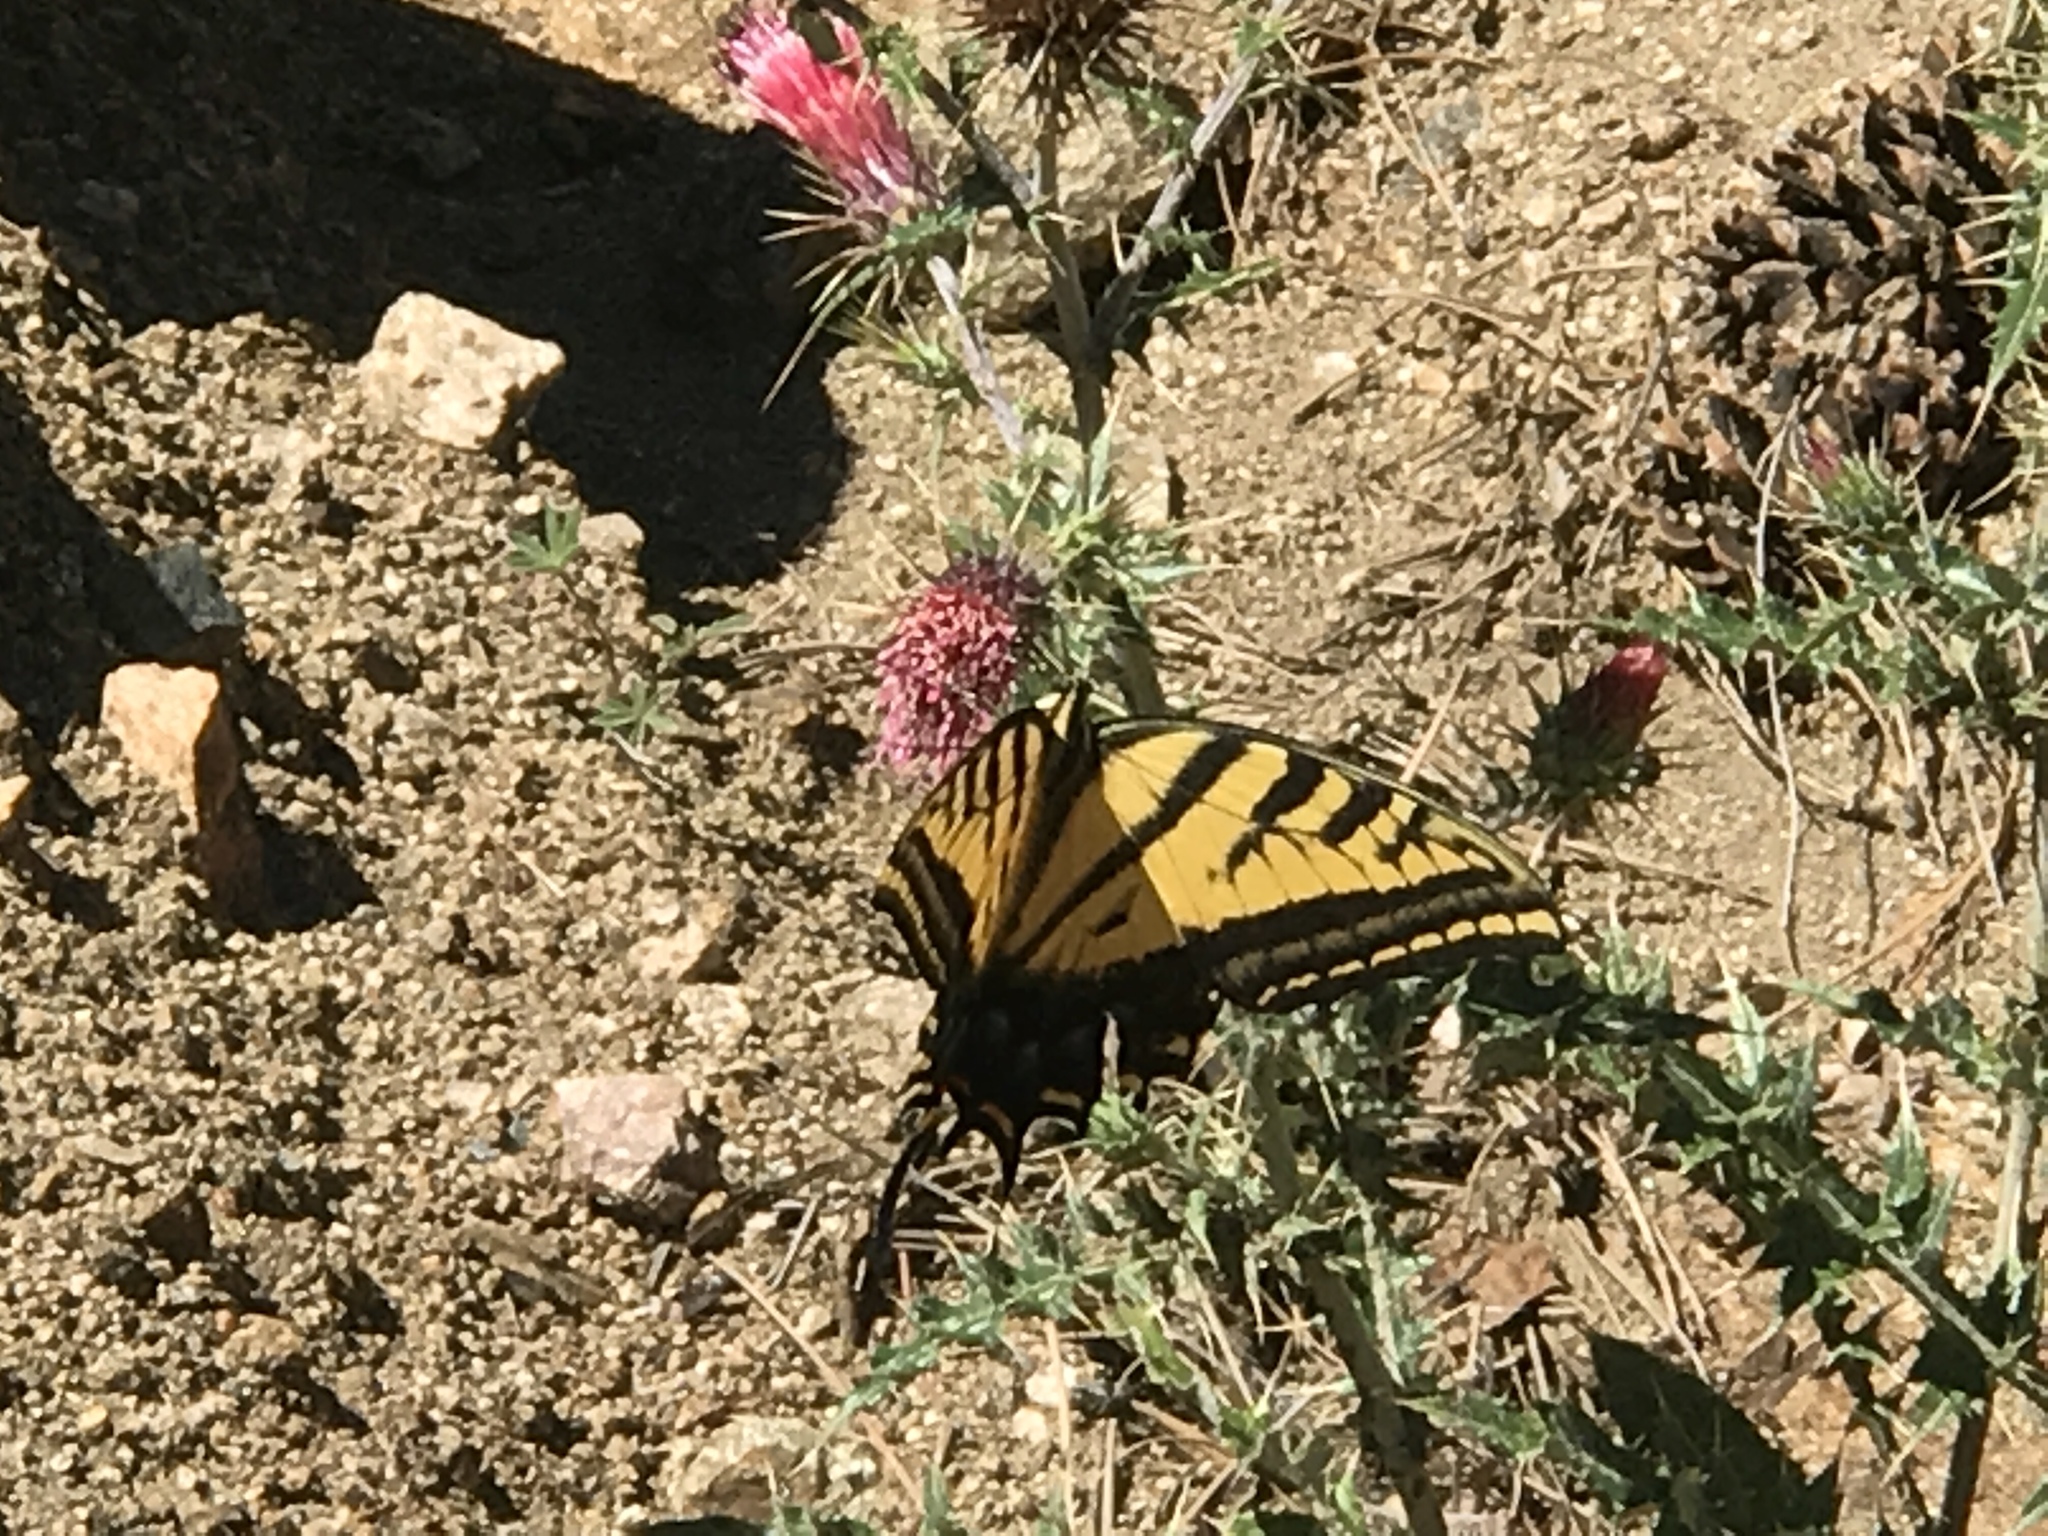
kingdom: Animalia
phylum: Arthropoda
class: Insecta
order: Lepidoptera
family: Papilionidae
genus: Papilio
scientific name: Papilio multicaudata
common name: Two-tailed tiger swallowtail
